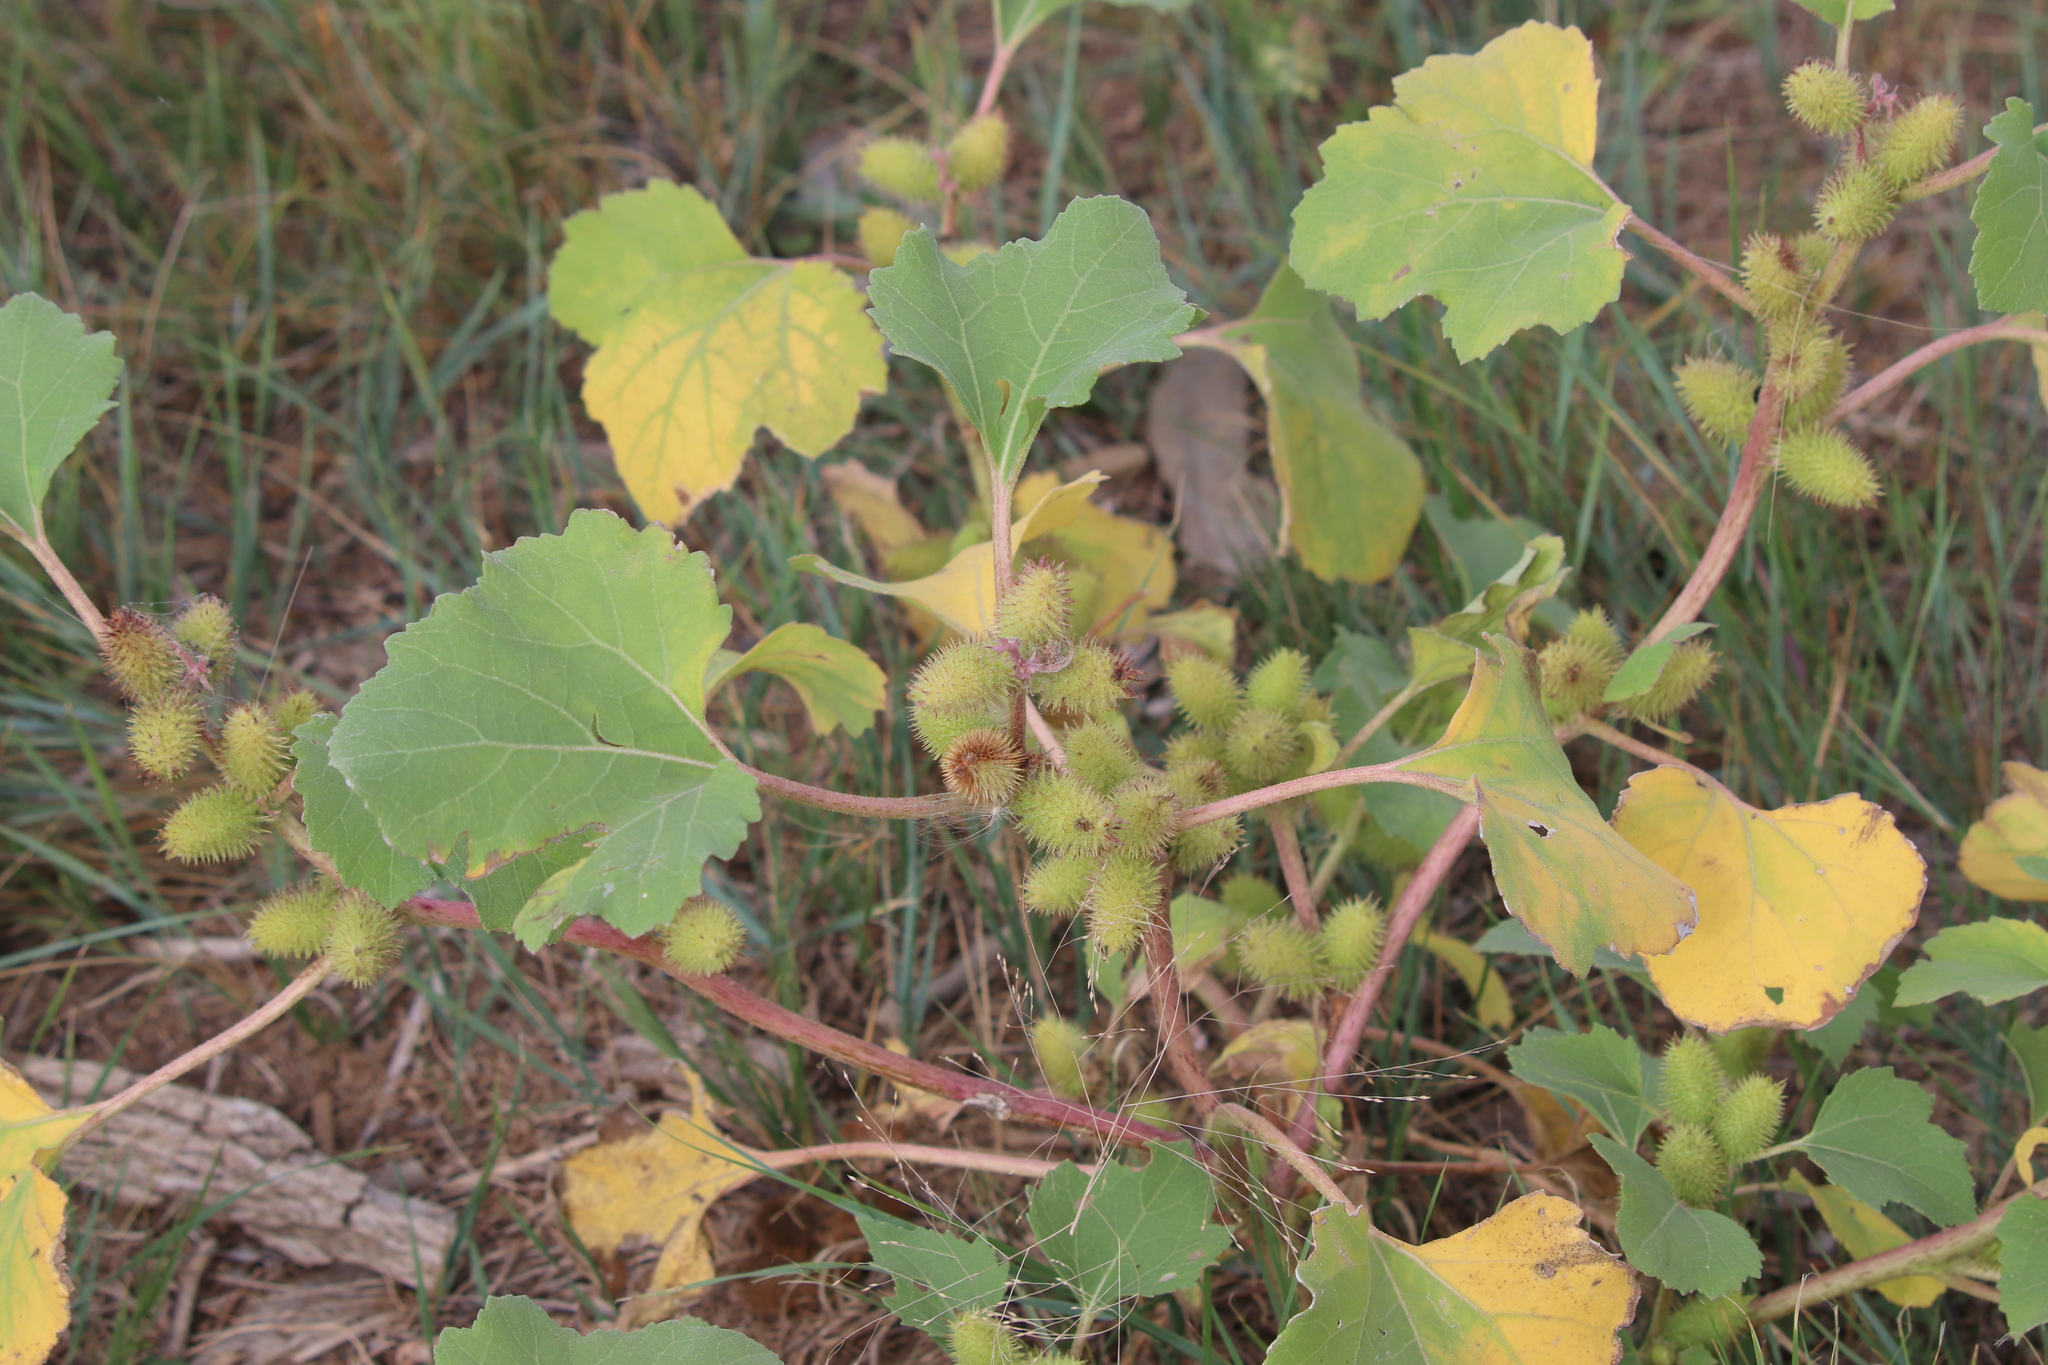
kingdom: Plantae
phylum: Tracheophyta
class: Magnoliopsida
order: Asterales
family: Asteraceae
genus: Xanthium
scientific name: Xanthium strumarium
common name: Rough cocklebur
